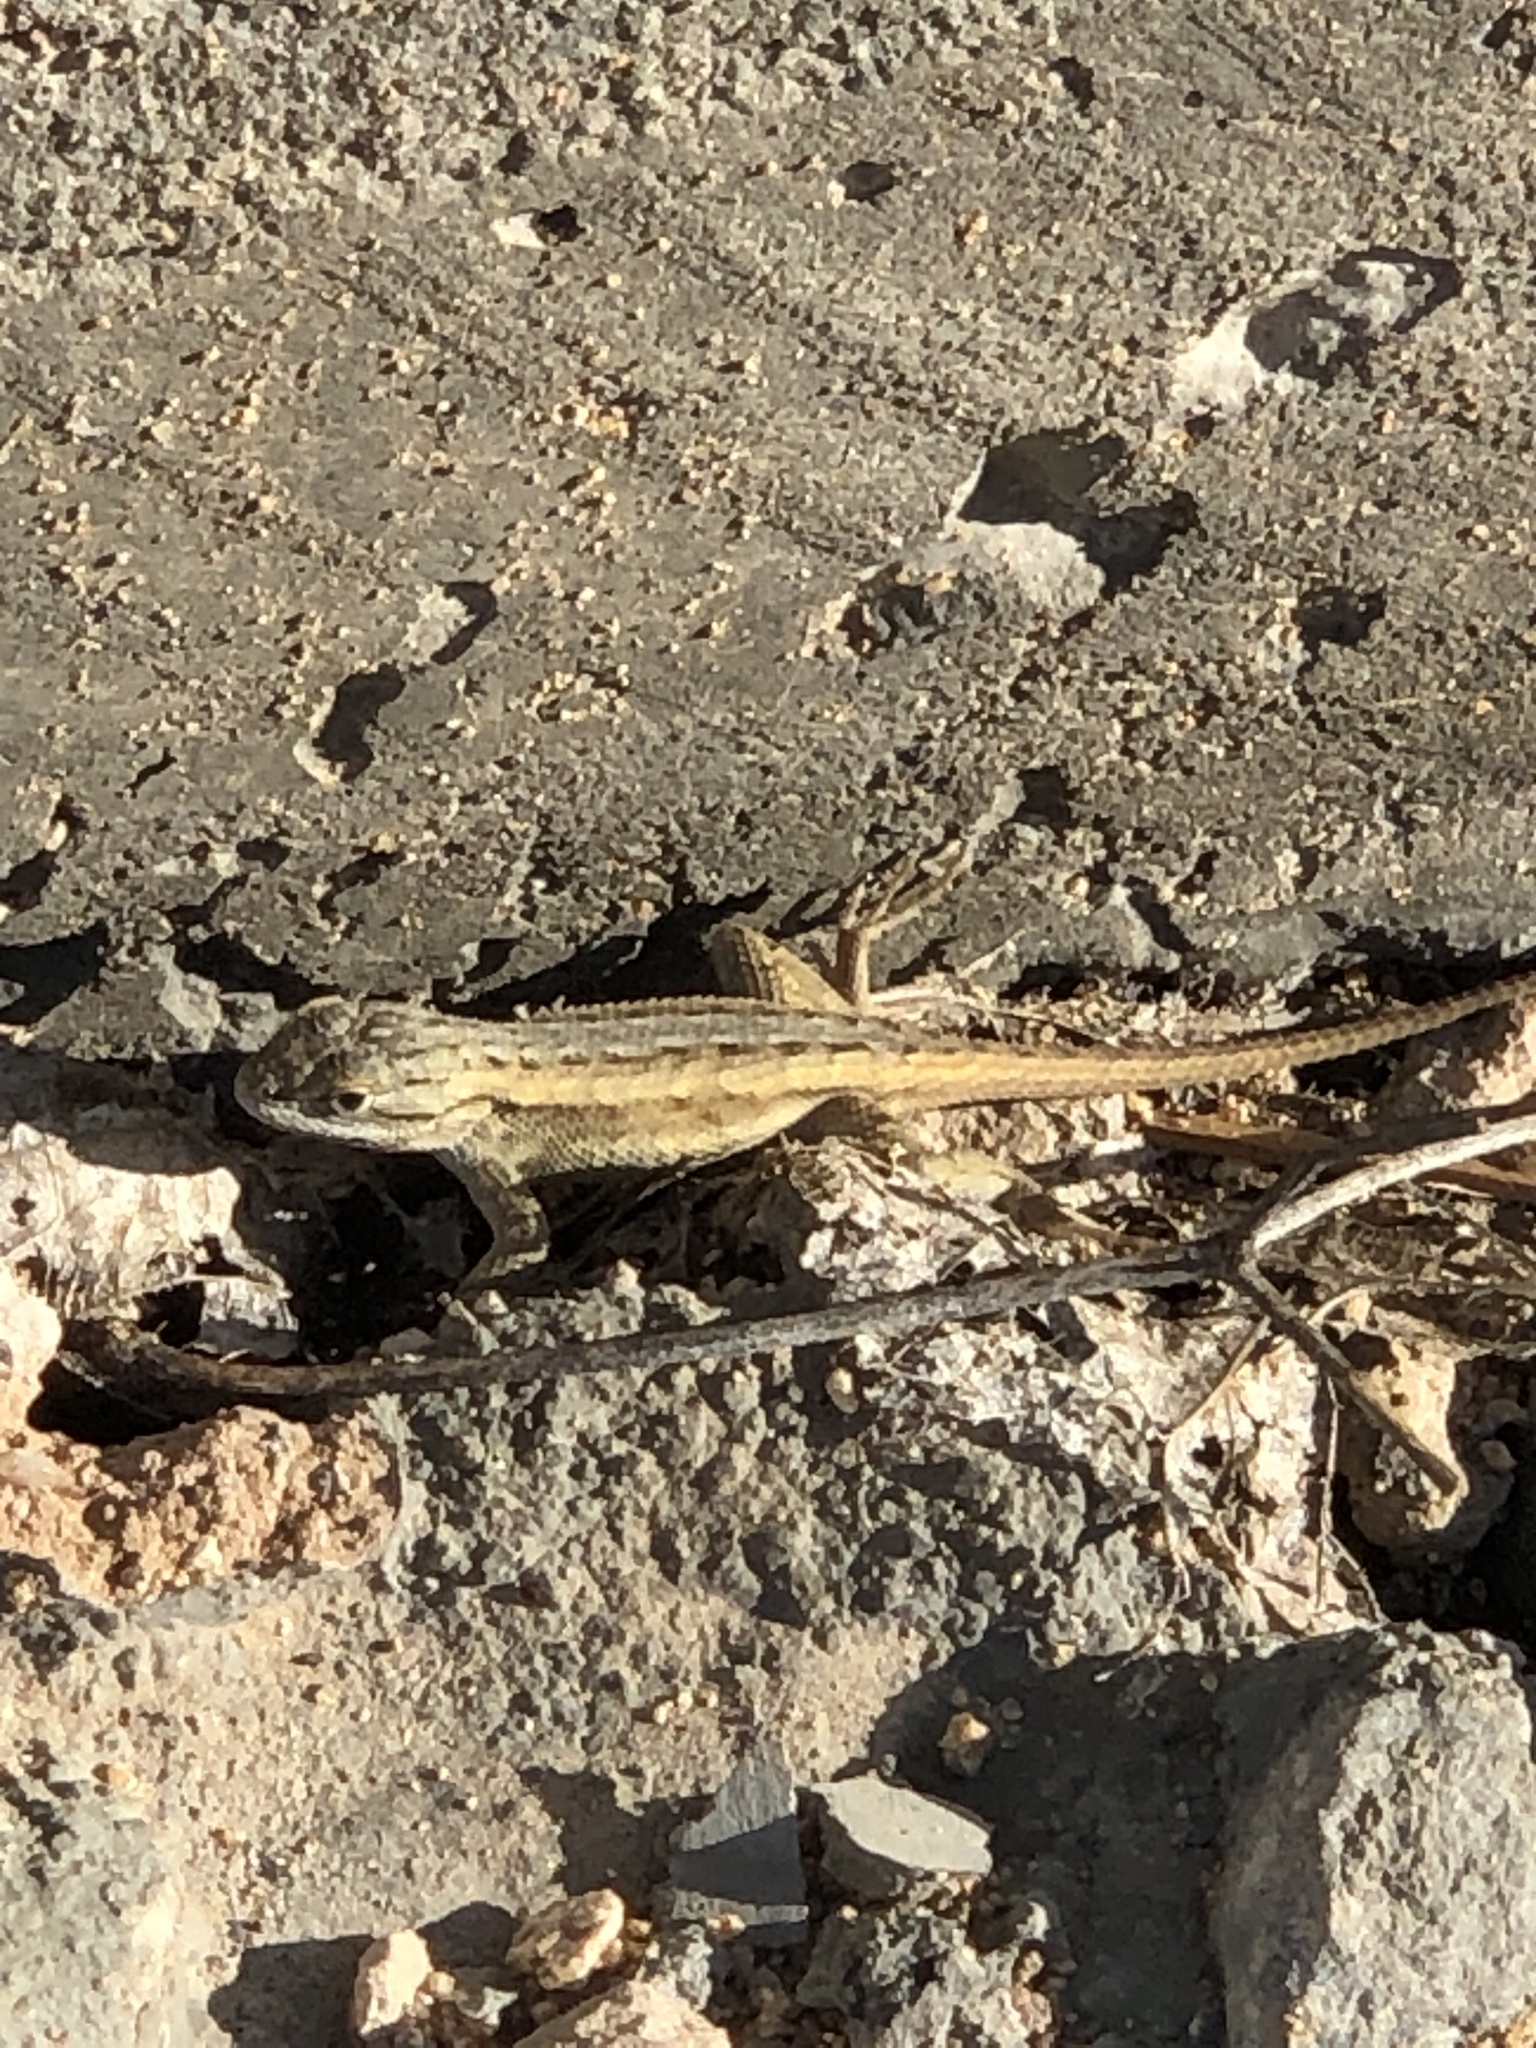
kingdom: Animalia
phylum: Chordata
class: Squamata
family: Phrynosomatidae
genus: Sceloporus
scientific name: Sceloporus tristichus
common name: Plateau fence lizard
